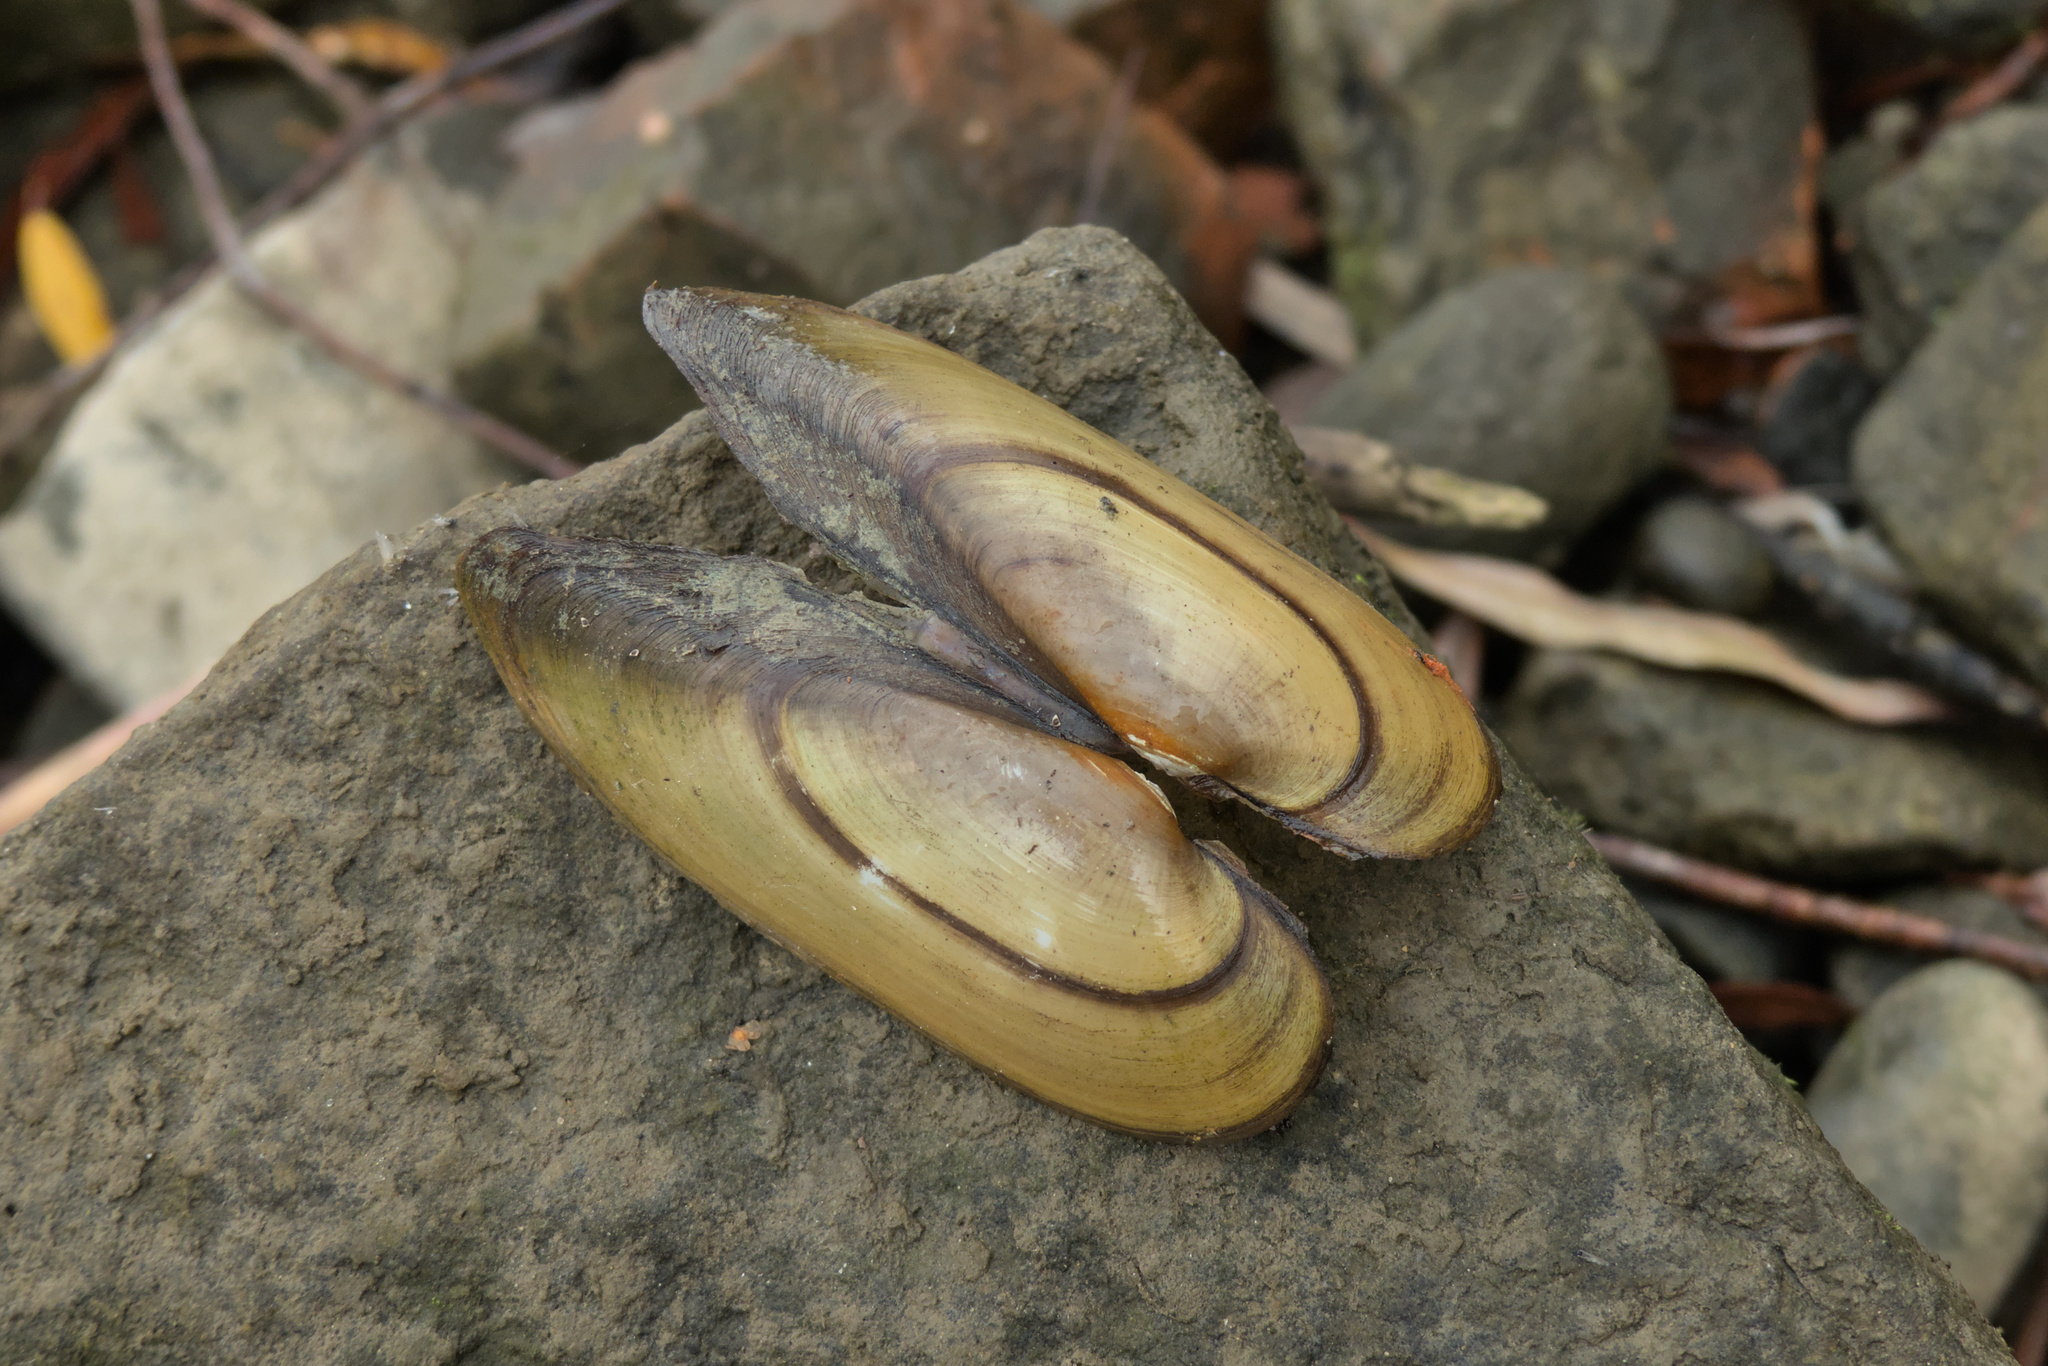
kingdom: Animalia
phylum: Mollusca
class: Bivalvia
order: Unionida
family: Unionidae
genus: Unio
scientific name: Unio pictorum
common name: Painter's mussel
